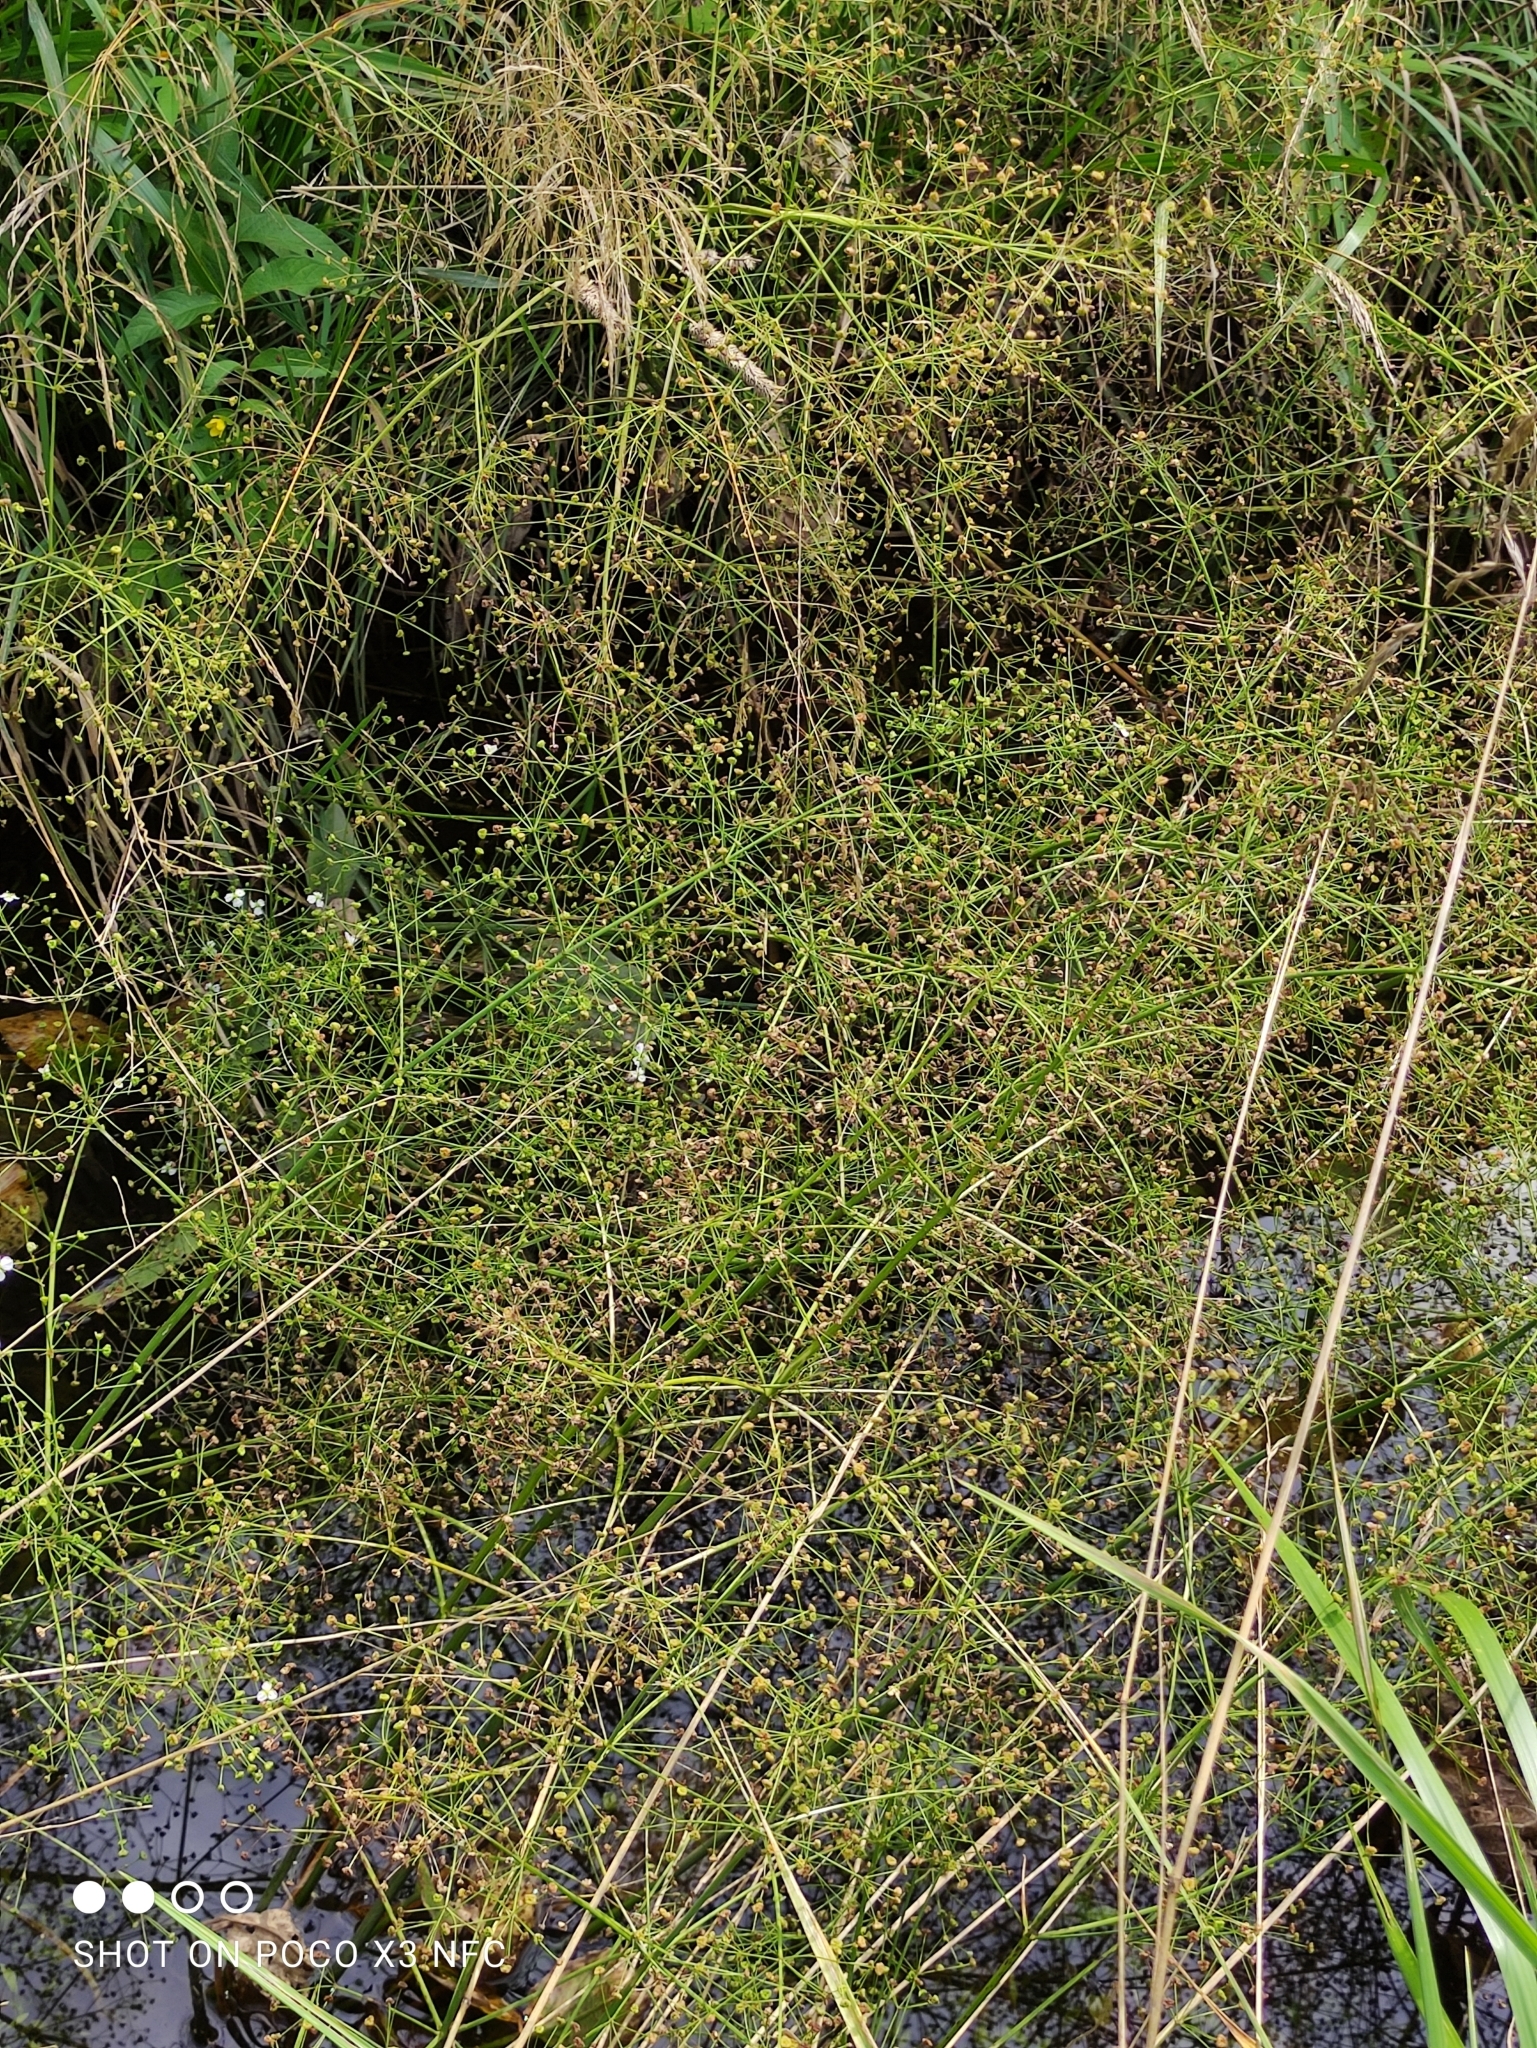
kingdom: Plantae
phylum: Tracheophyta
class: Liliopsida
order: Alismatales
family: Alismataceae
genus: Alisma
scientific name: Alisma plantago-aquatica
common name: Water-plantain
